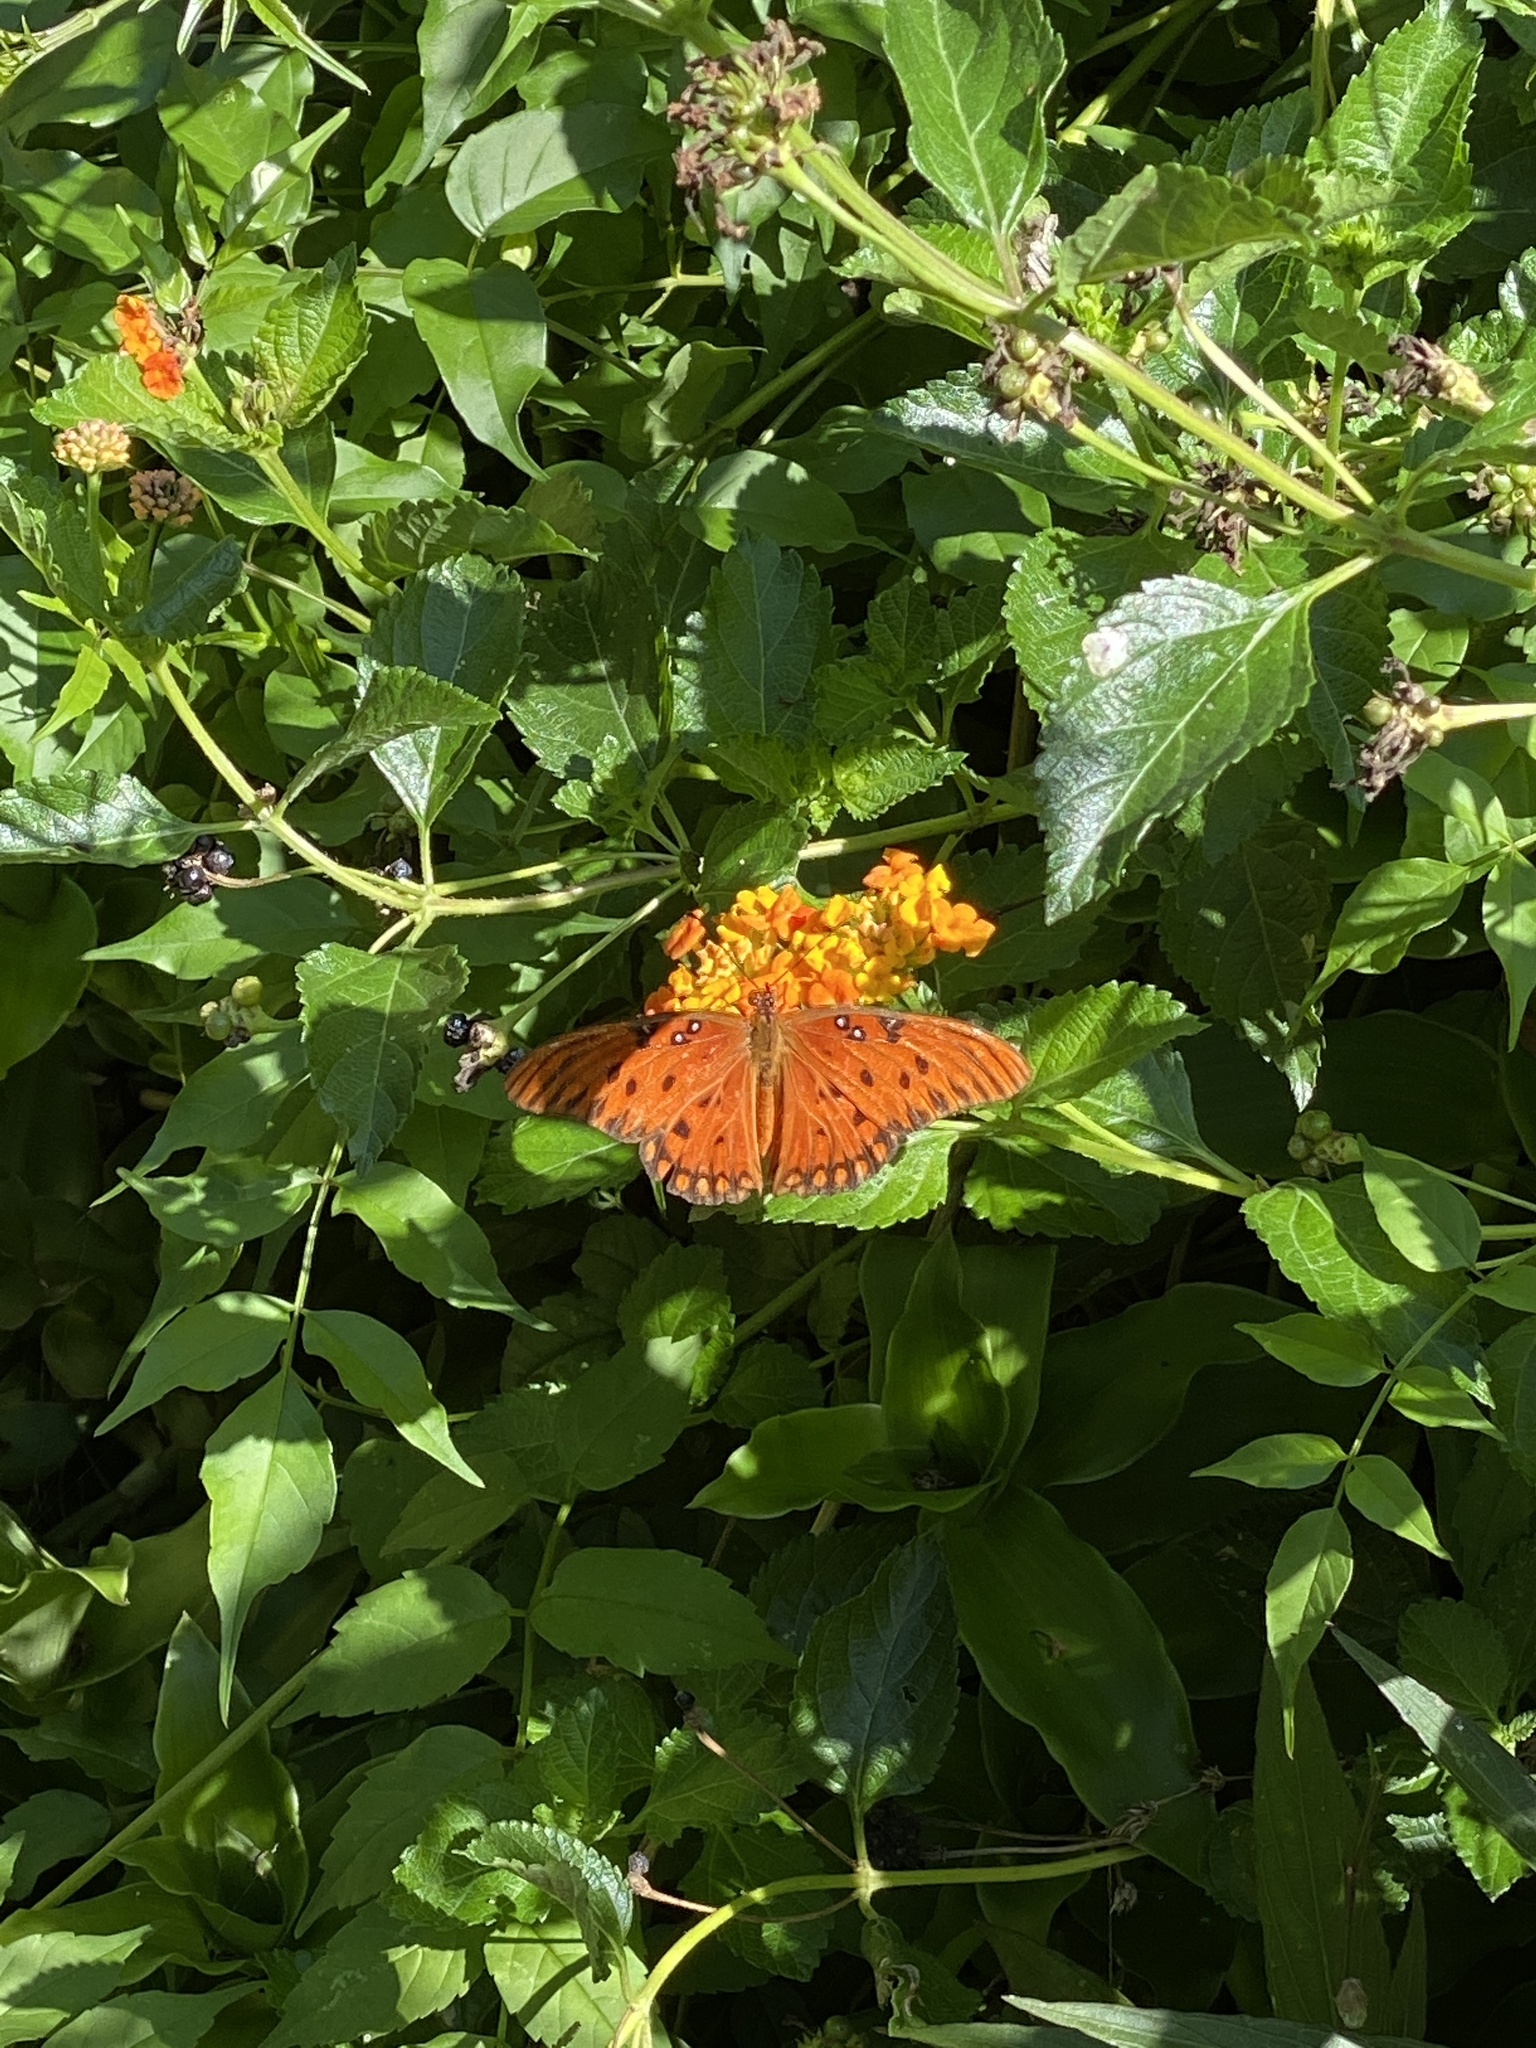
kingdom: Animalia
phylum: Arthropoda
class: Insecta
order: Lepidoptera
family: Nymphalidae
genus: Dione
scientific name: Dione vanillae
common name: Gulf fritillary
